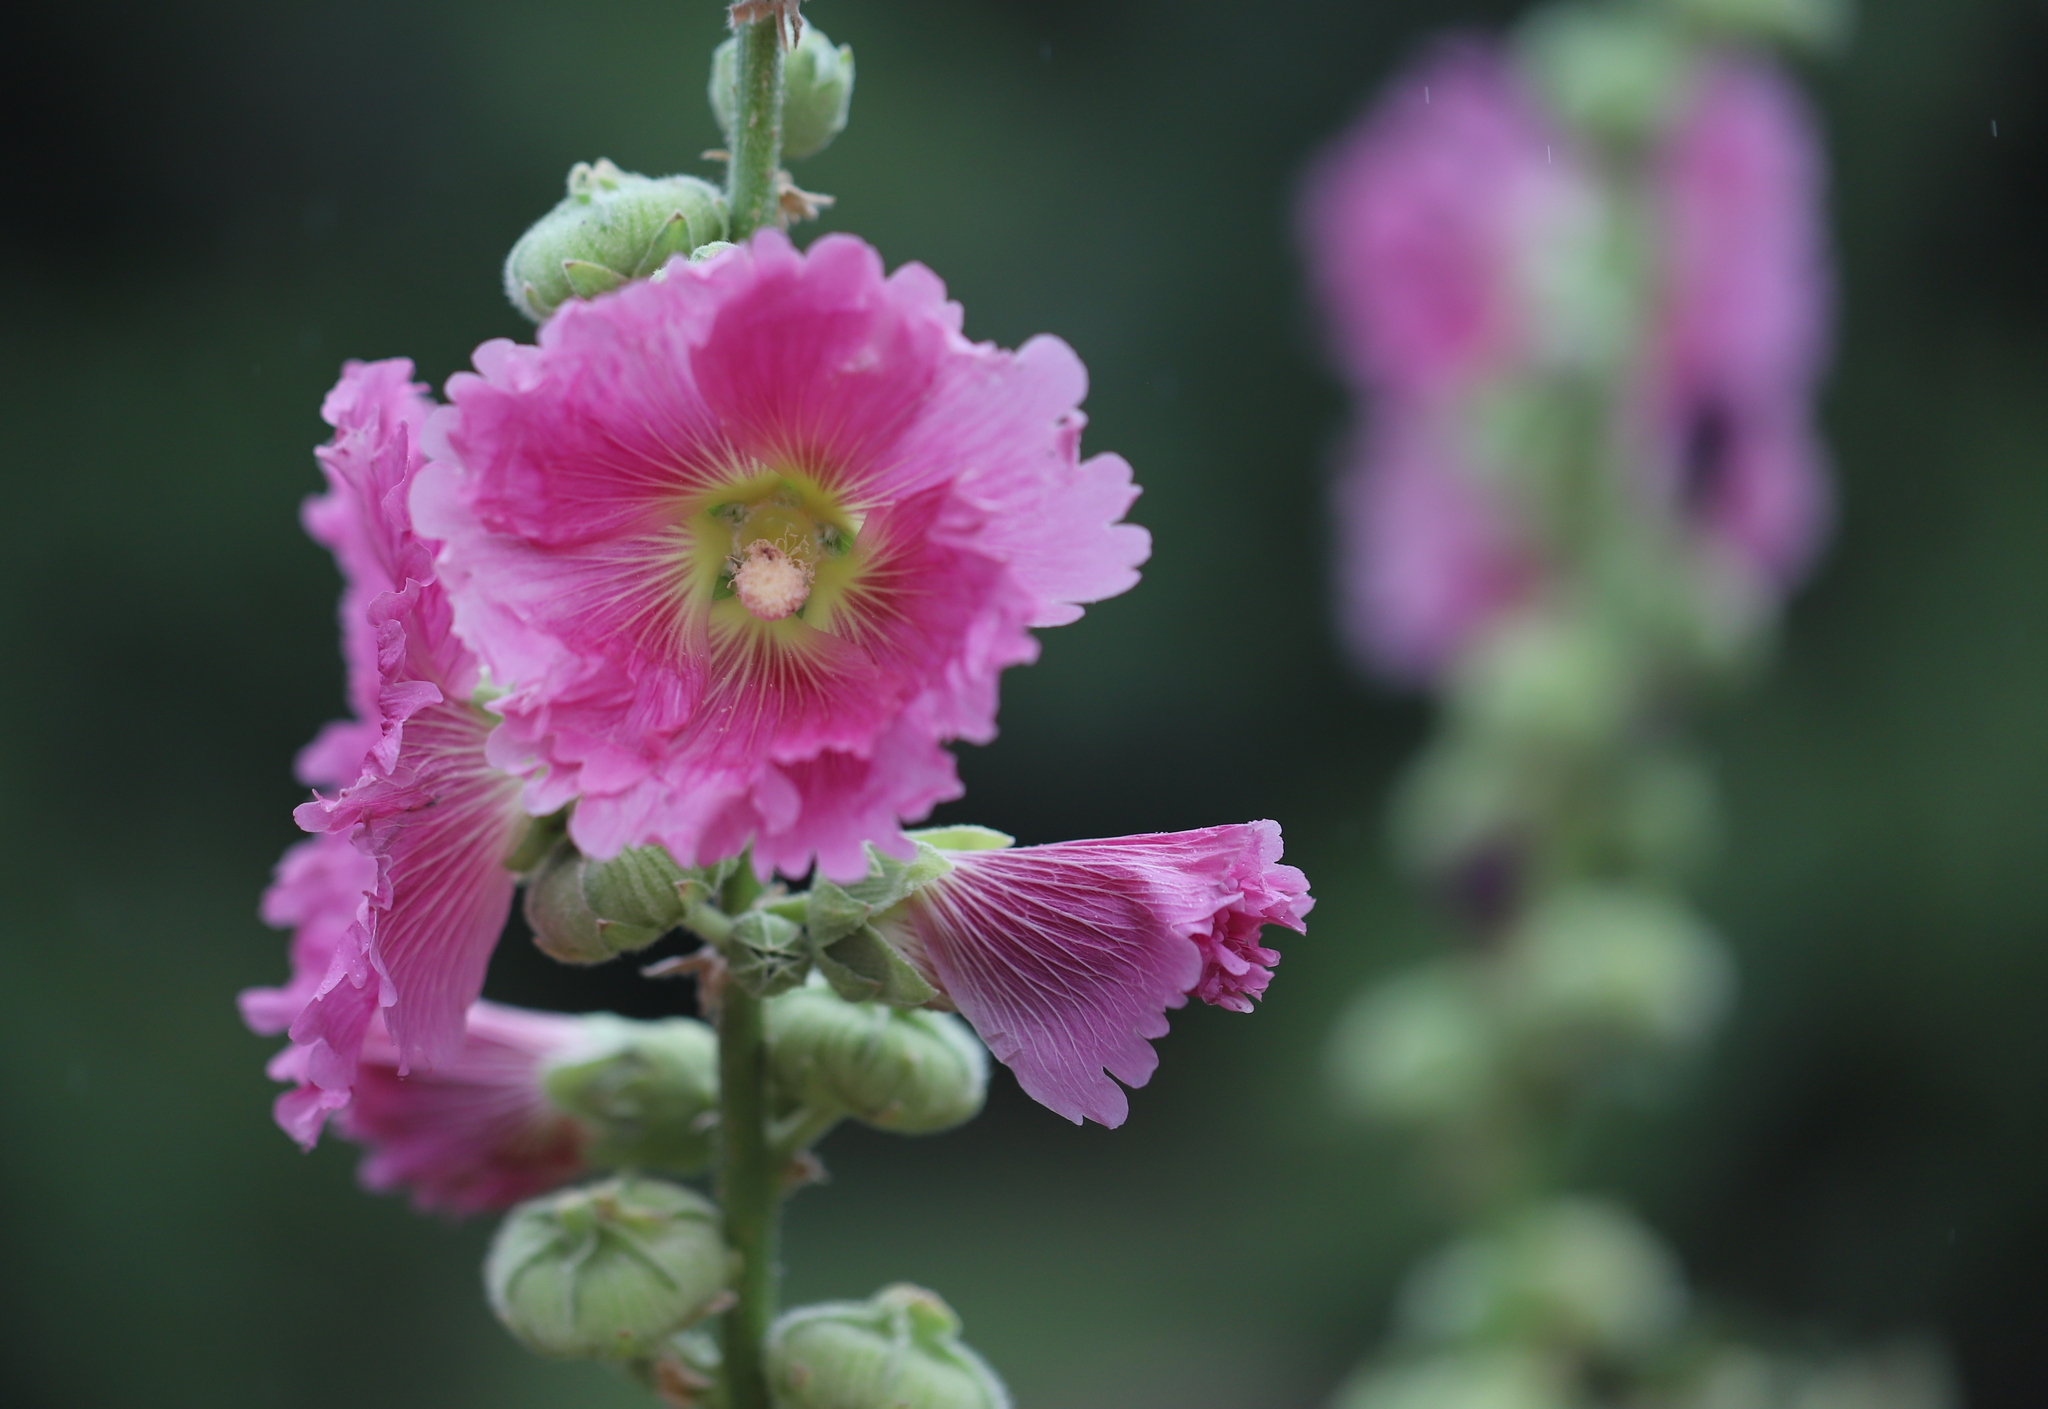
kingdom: Plantae
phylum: Tracheophyta
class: Magnoliopsida
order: Malvales
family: Malvaceae
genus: Alcea
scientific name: Alcea rosea
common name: Hollyhock
